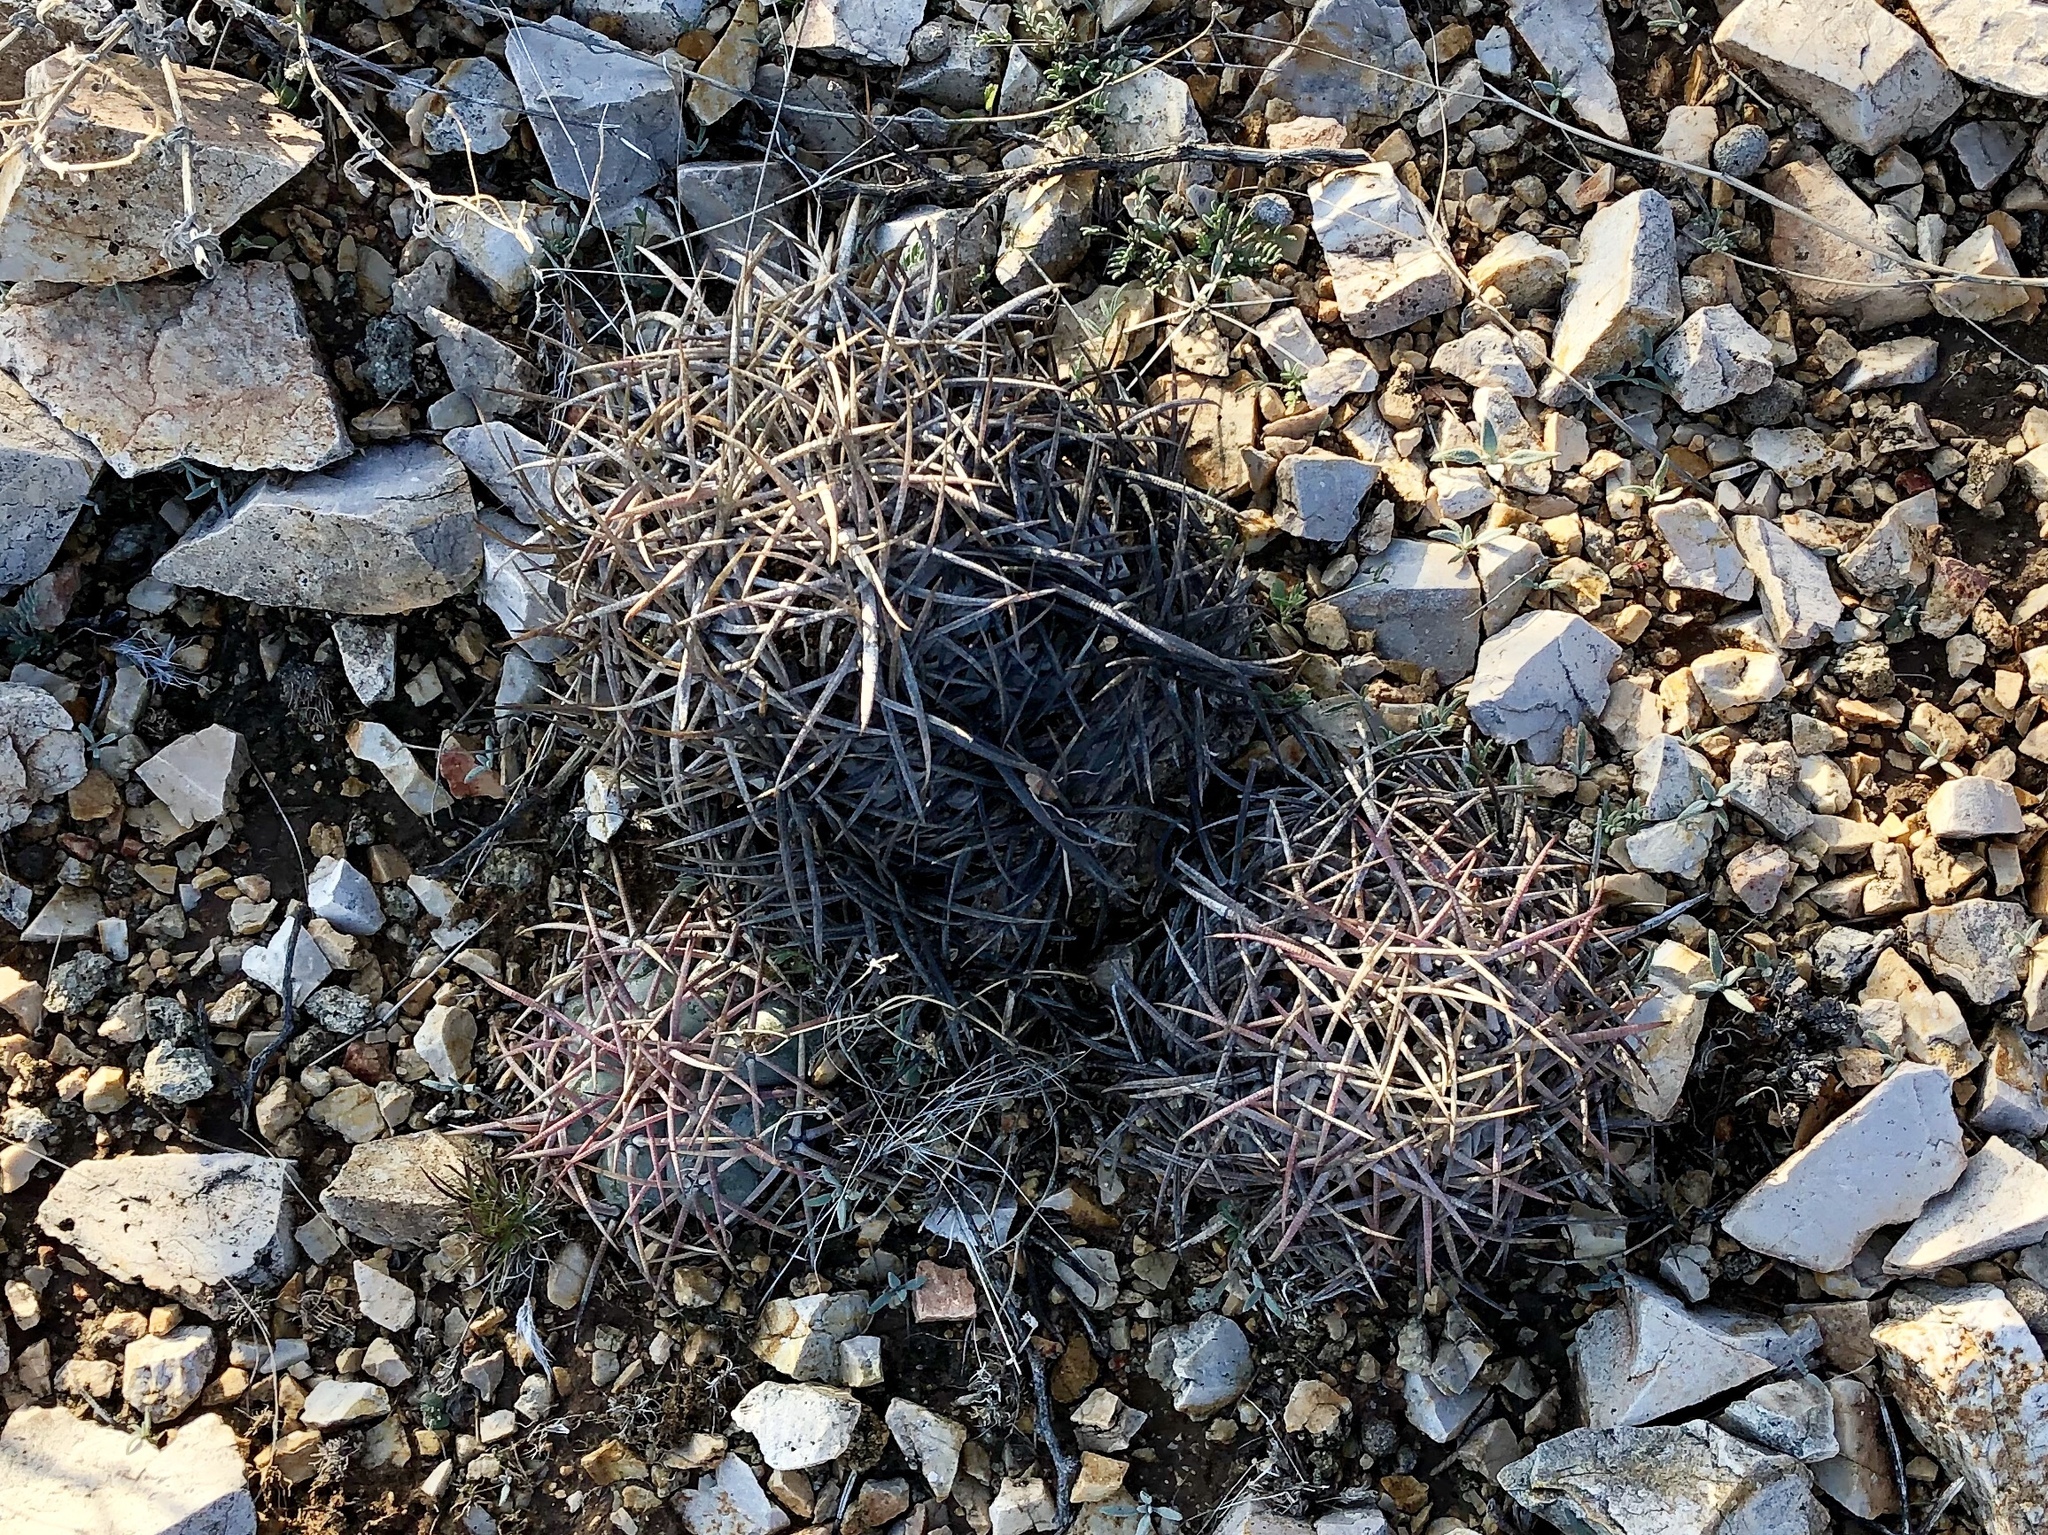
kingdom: Plantae
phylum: Tracheophyta
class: Magnoliopsida
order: Caryophyllales
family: Cactaceae
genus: Echinocactus
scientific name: Echinocactus horizonthalonius
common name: Devilshead
